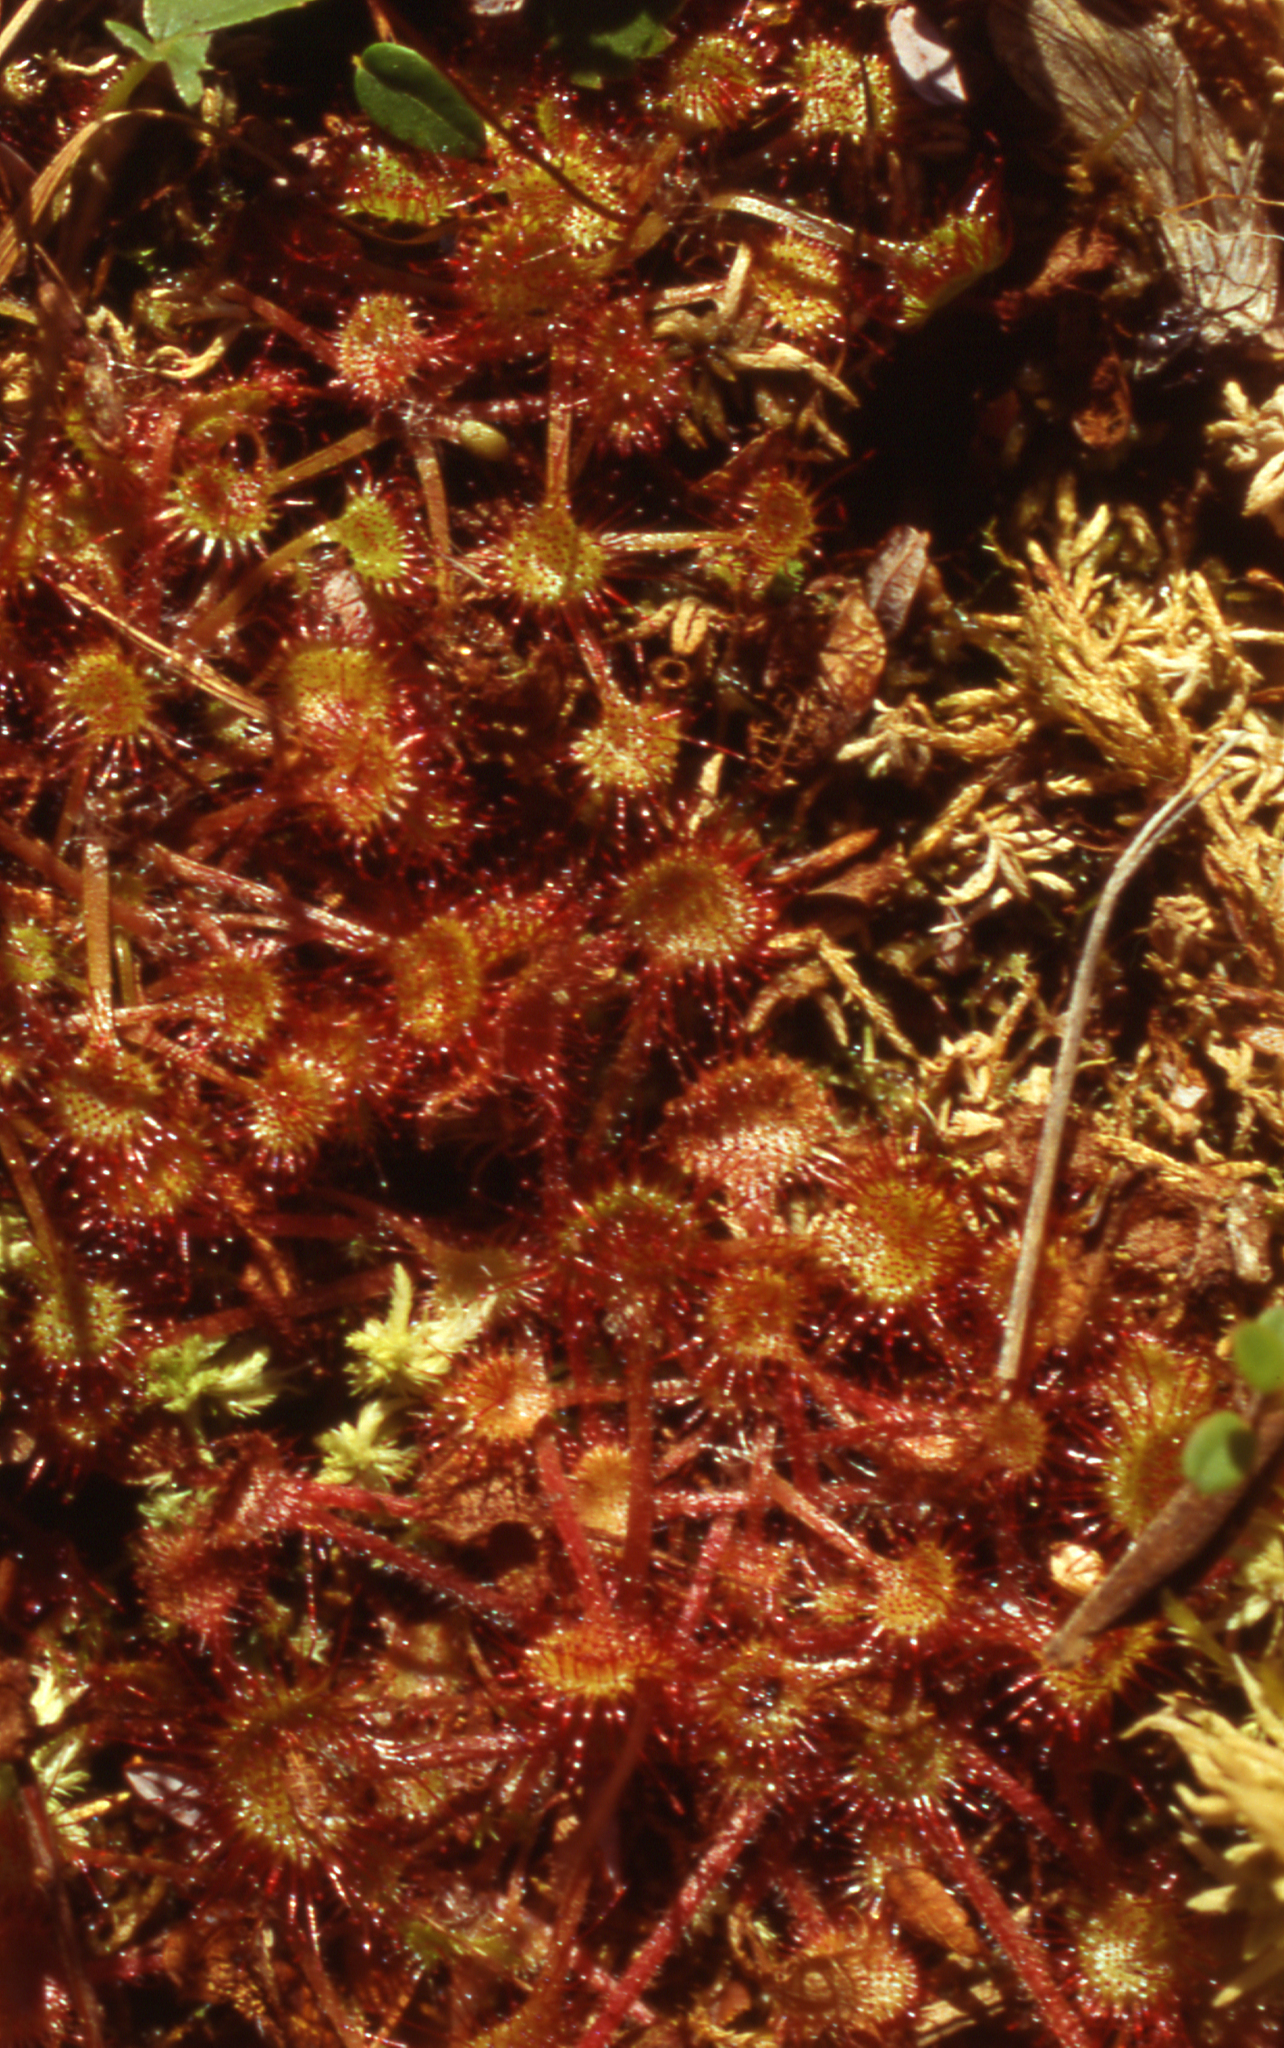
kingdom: Plantae
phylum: Tracheophyta
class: Magnoliopsida
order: Caryophyllales
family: Droseraceae
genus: Drosera
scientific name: Drosera rotundifolia
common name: Round-leaved sundew
